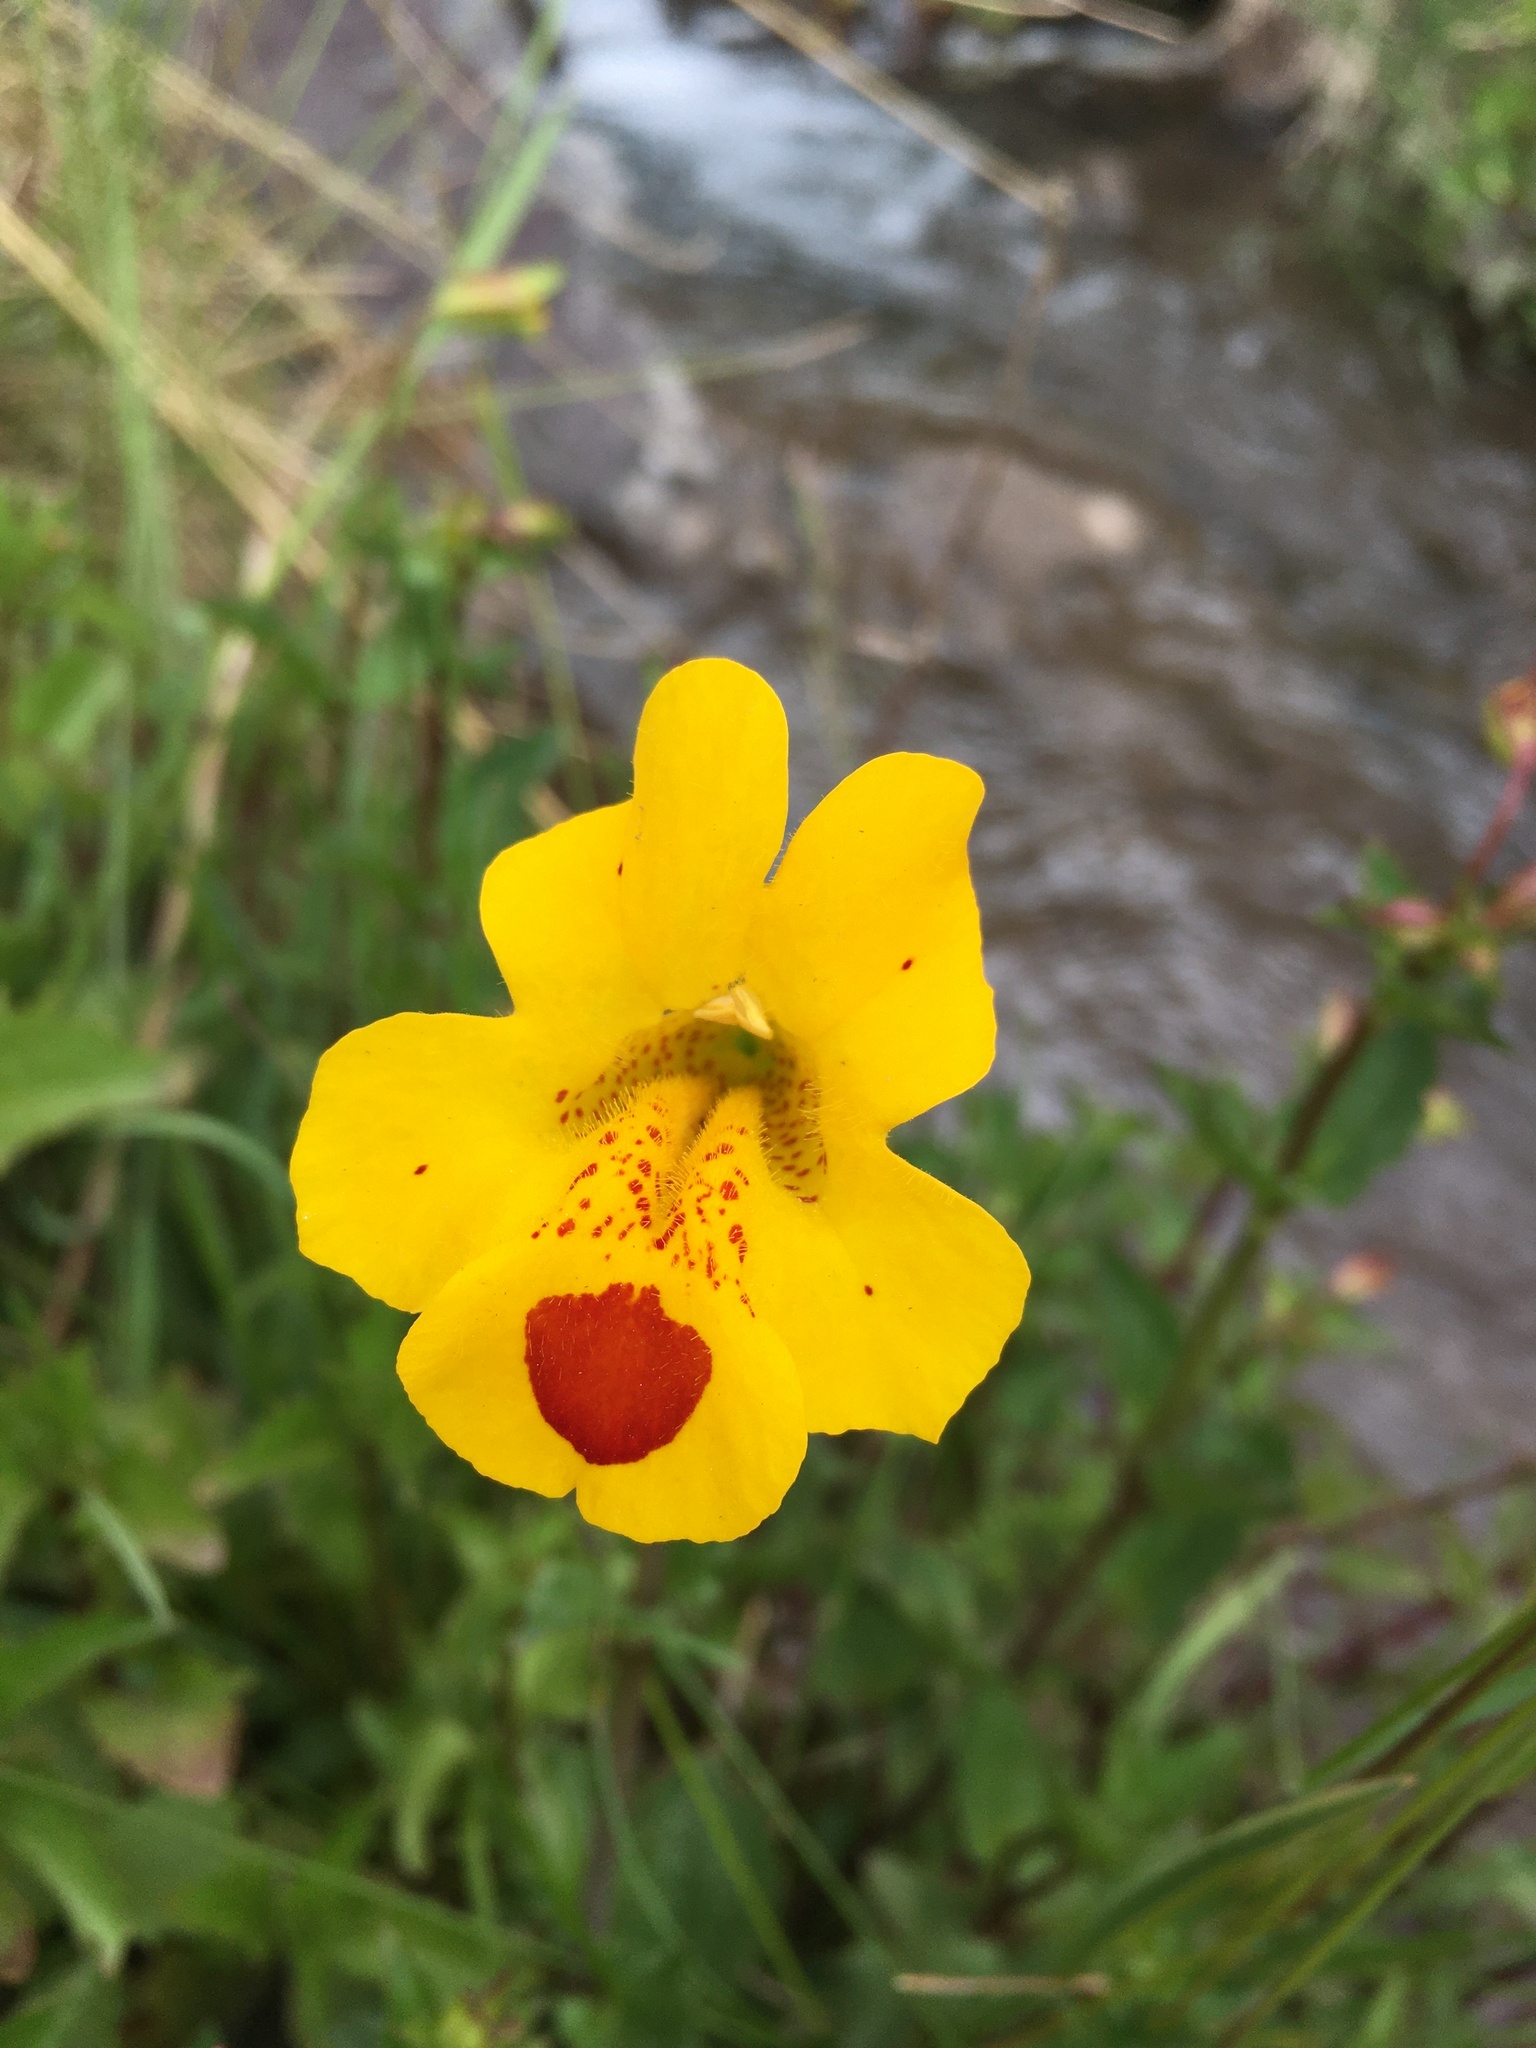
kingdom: Plantae
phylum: Tracheophyta
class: Magnoliopsida
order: Lamiales
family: Phrymaceae
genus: Erythranthe
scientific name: Erythranthe lutea
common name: Yellow monkey-flower
